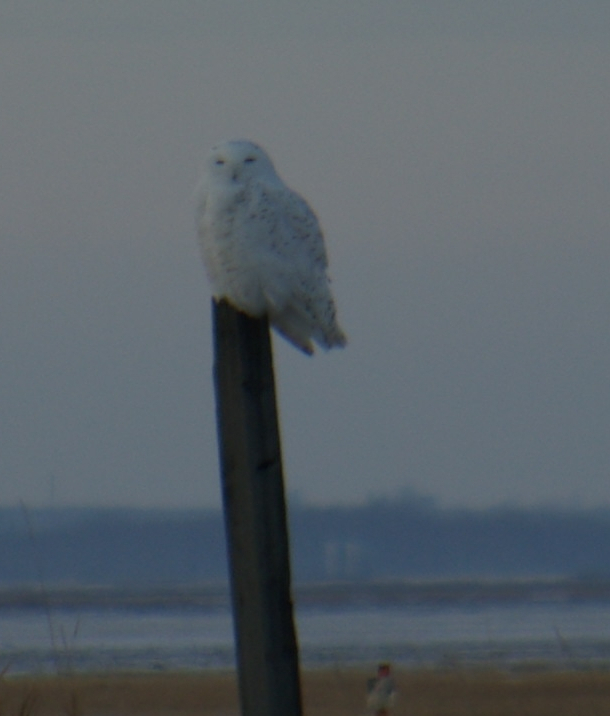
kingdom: Animalia
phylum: Chordata
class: Aves
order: Strigiformes
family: Strigidae
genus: Bubo
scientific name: Bubo scandiacus
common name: Snowy owl
